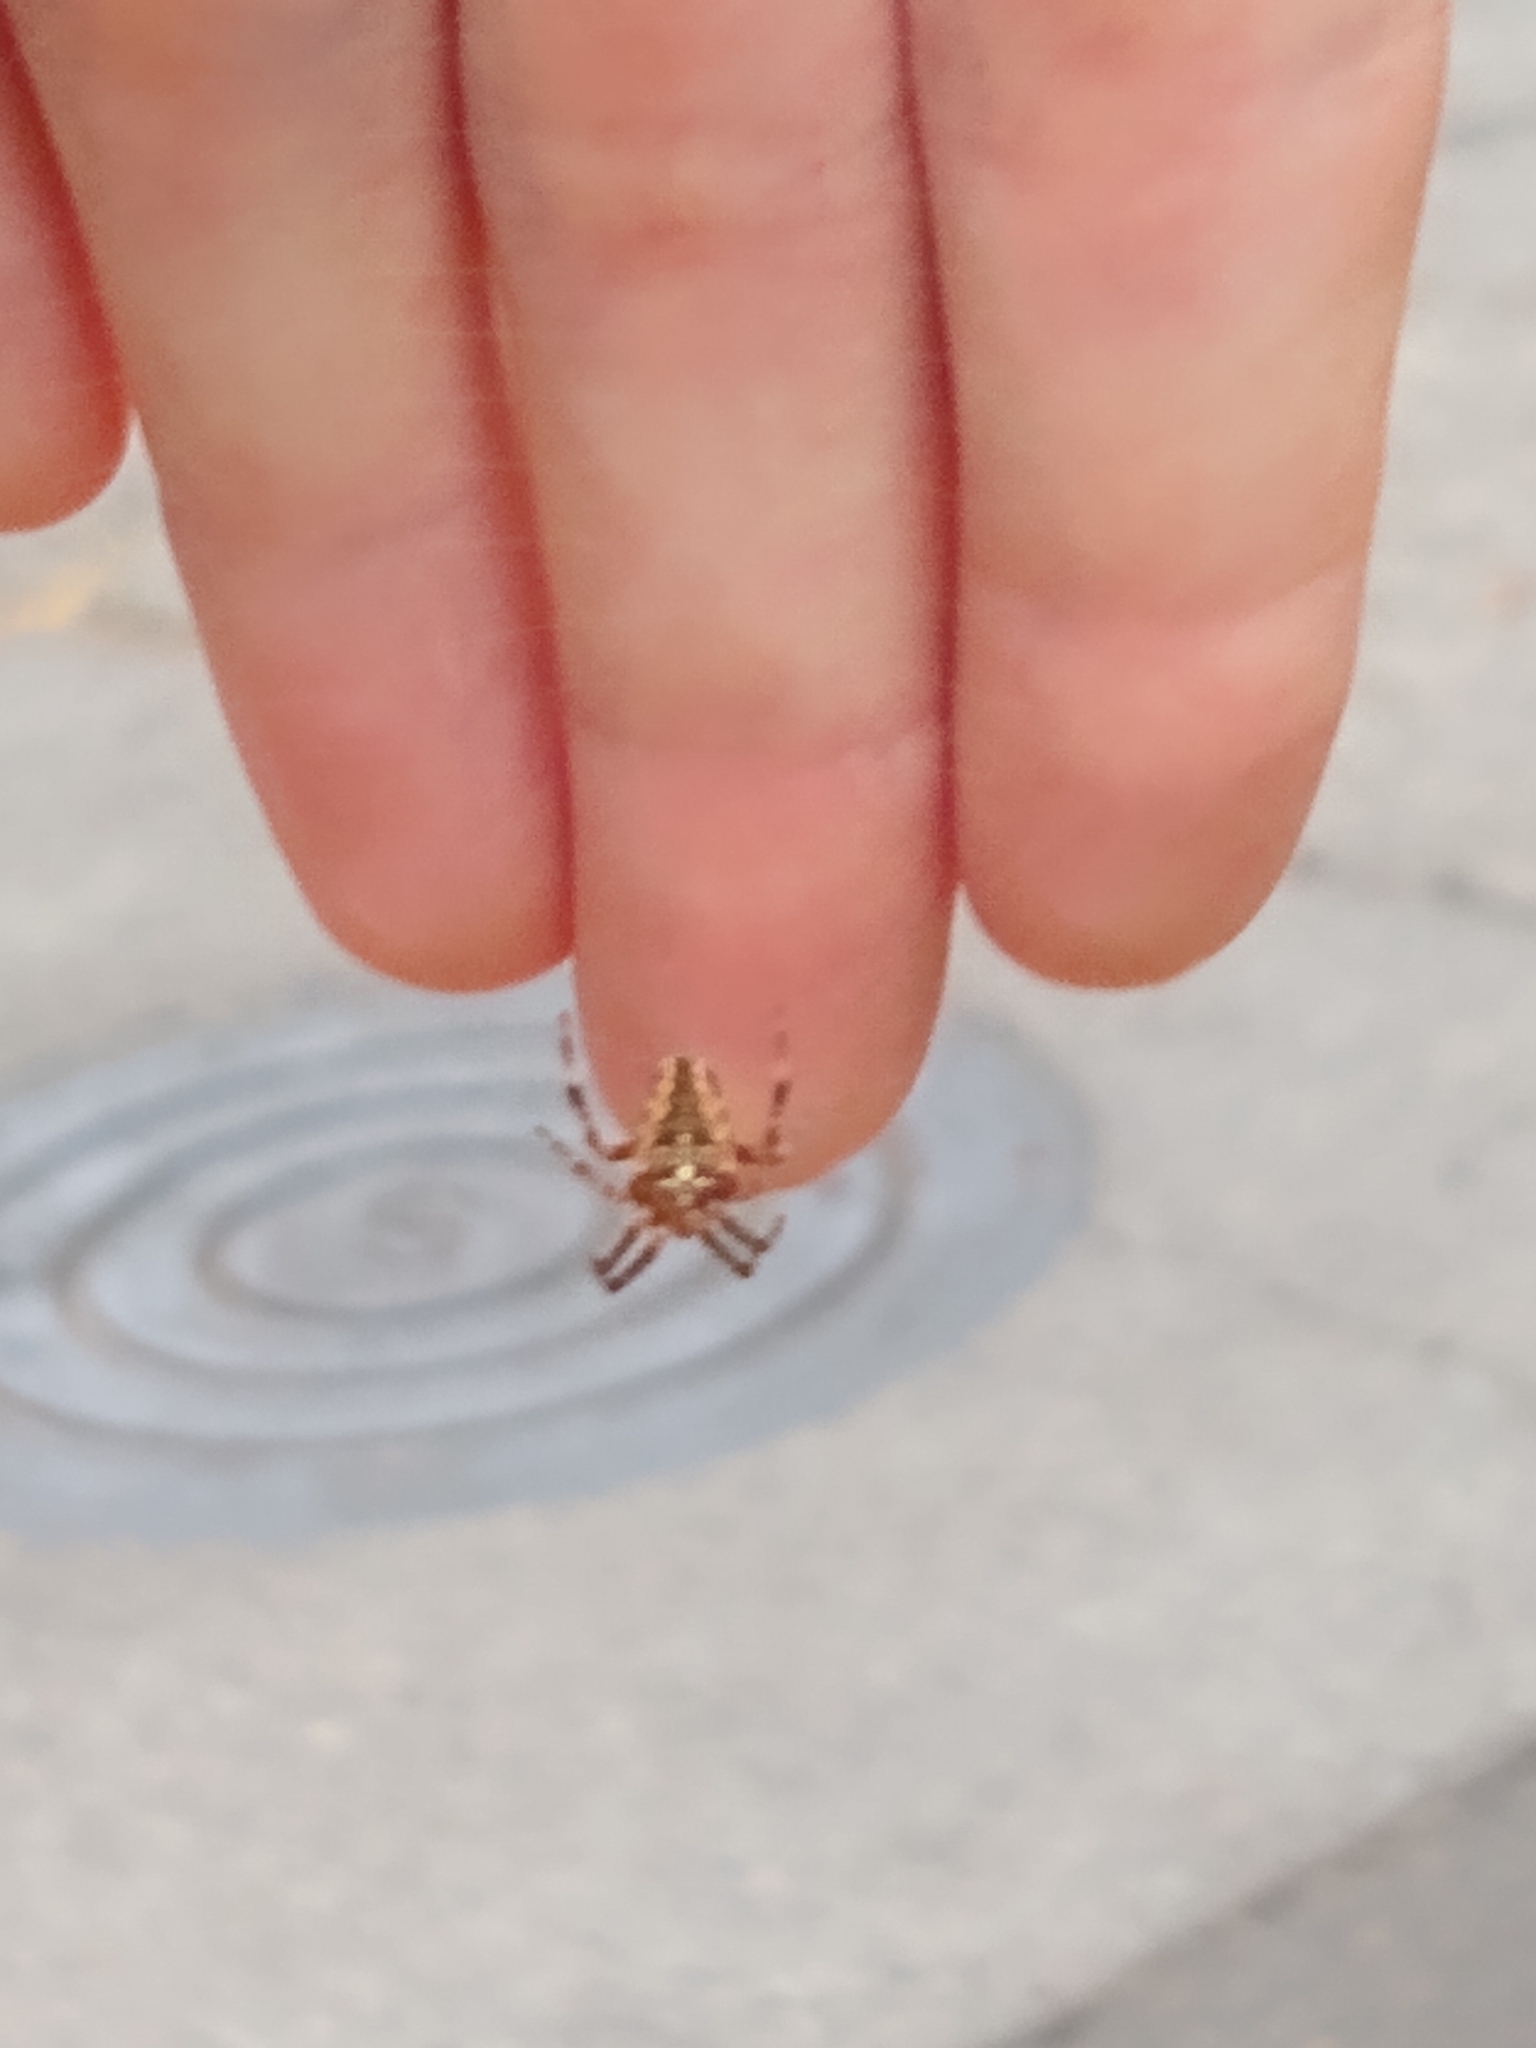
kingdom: Animalia
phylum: Arthropoda
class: Arachnida
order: Araneae
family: Araneidae
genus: Araneus
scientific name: Araneus diadematus
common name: Cross orbweaver
